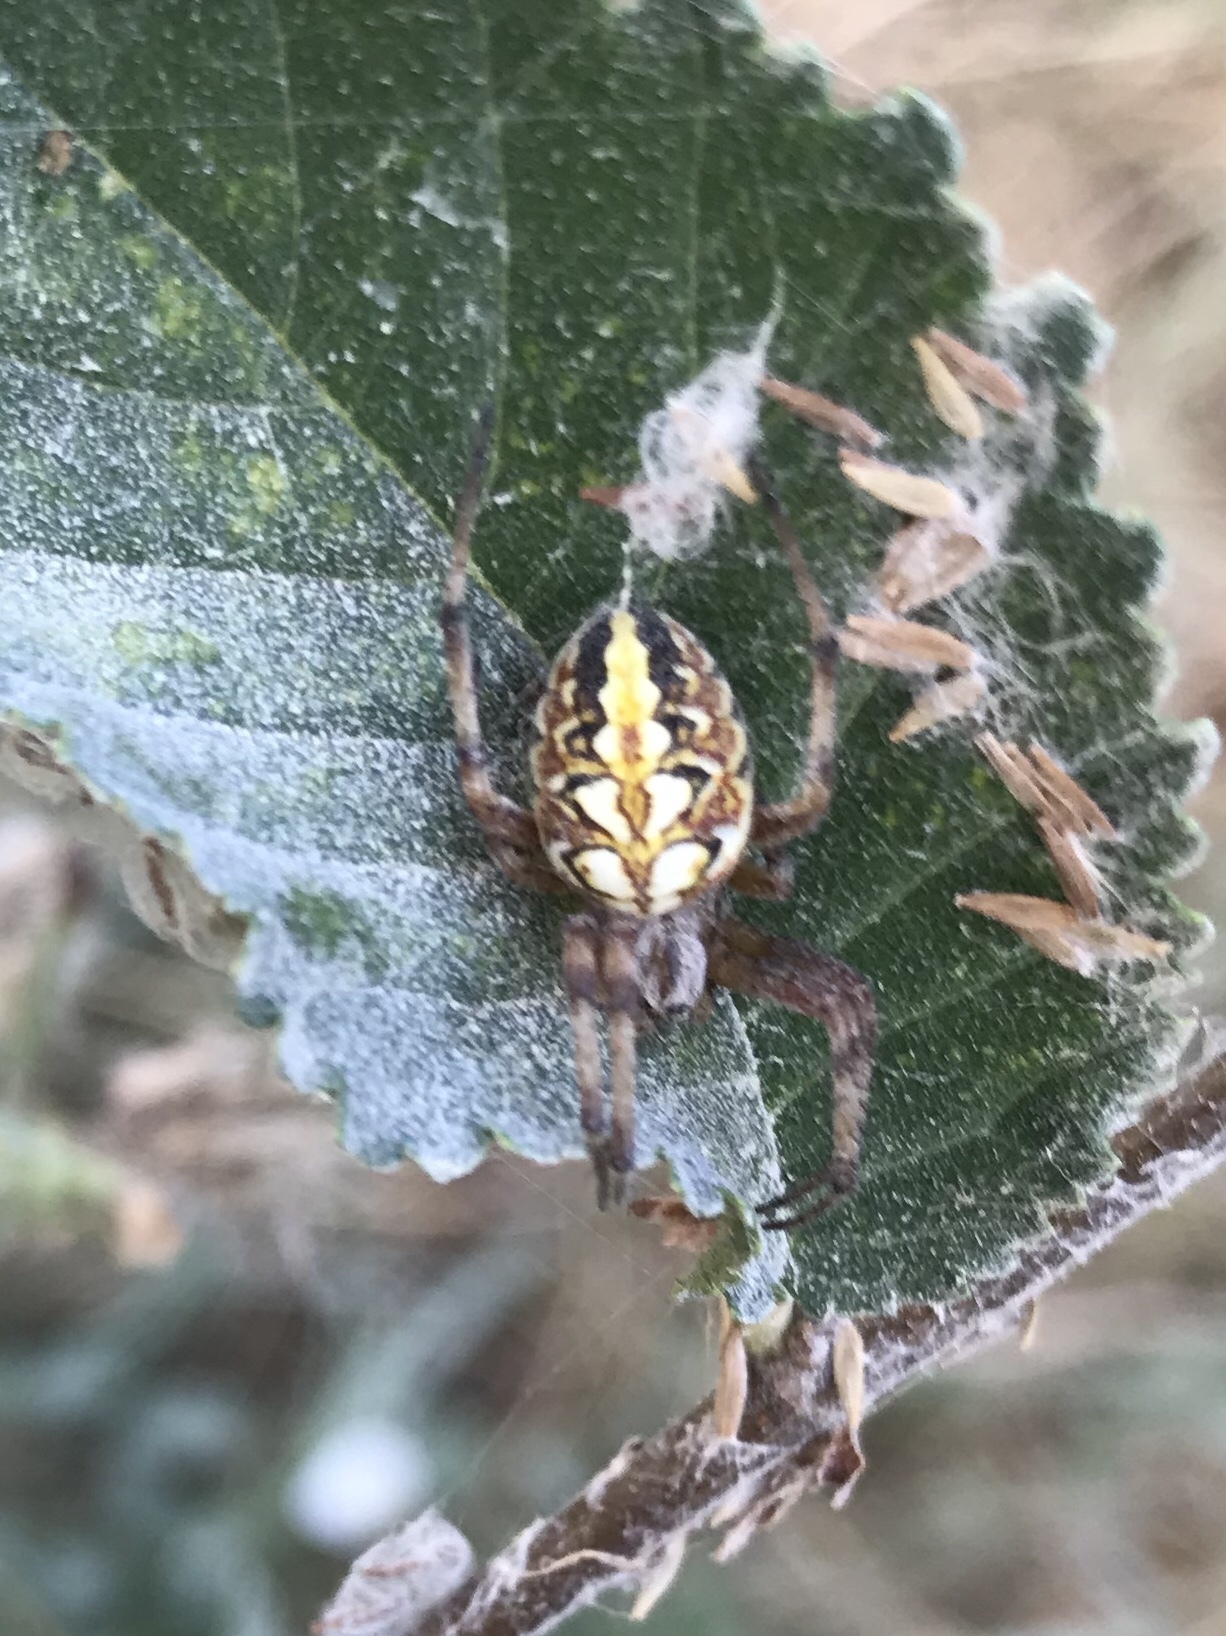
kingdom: Animalia
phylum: Arthropoda
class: Arachnida
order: Araneae
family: Araneidae
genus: Neoscona
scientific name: Neoscona adianta
